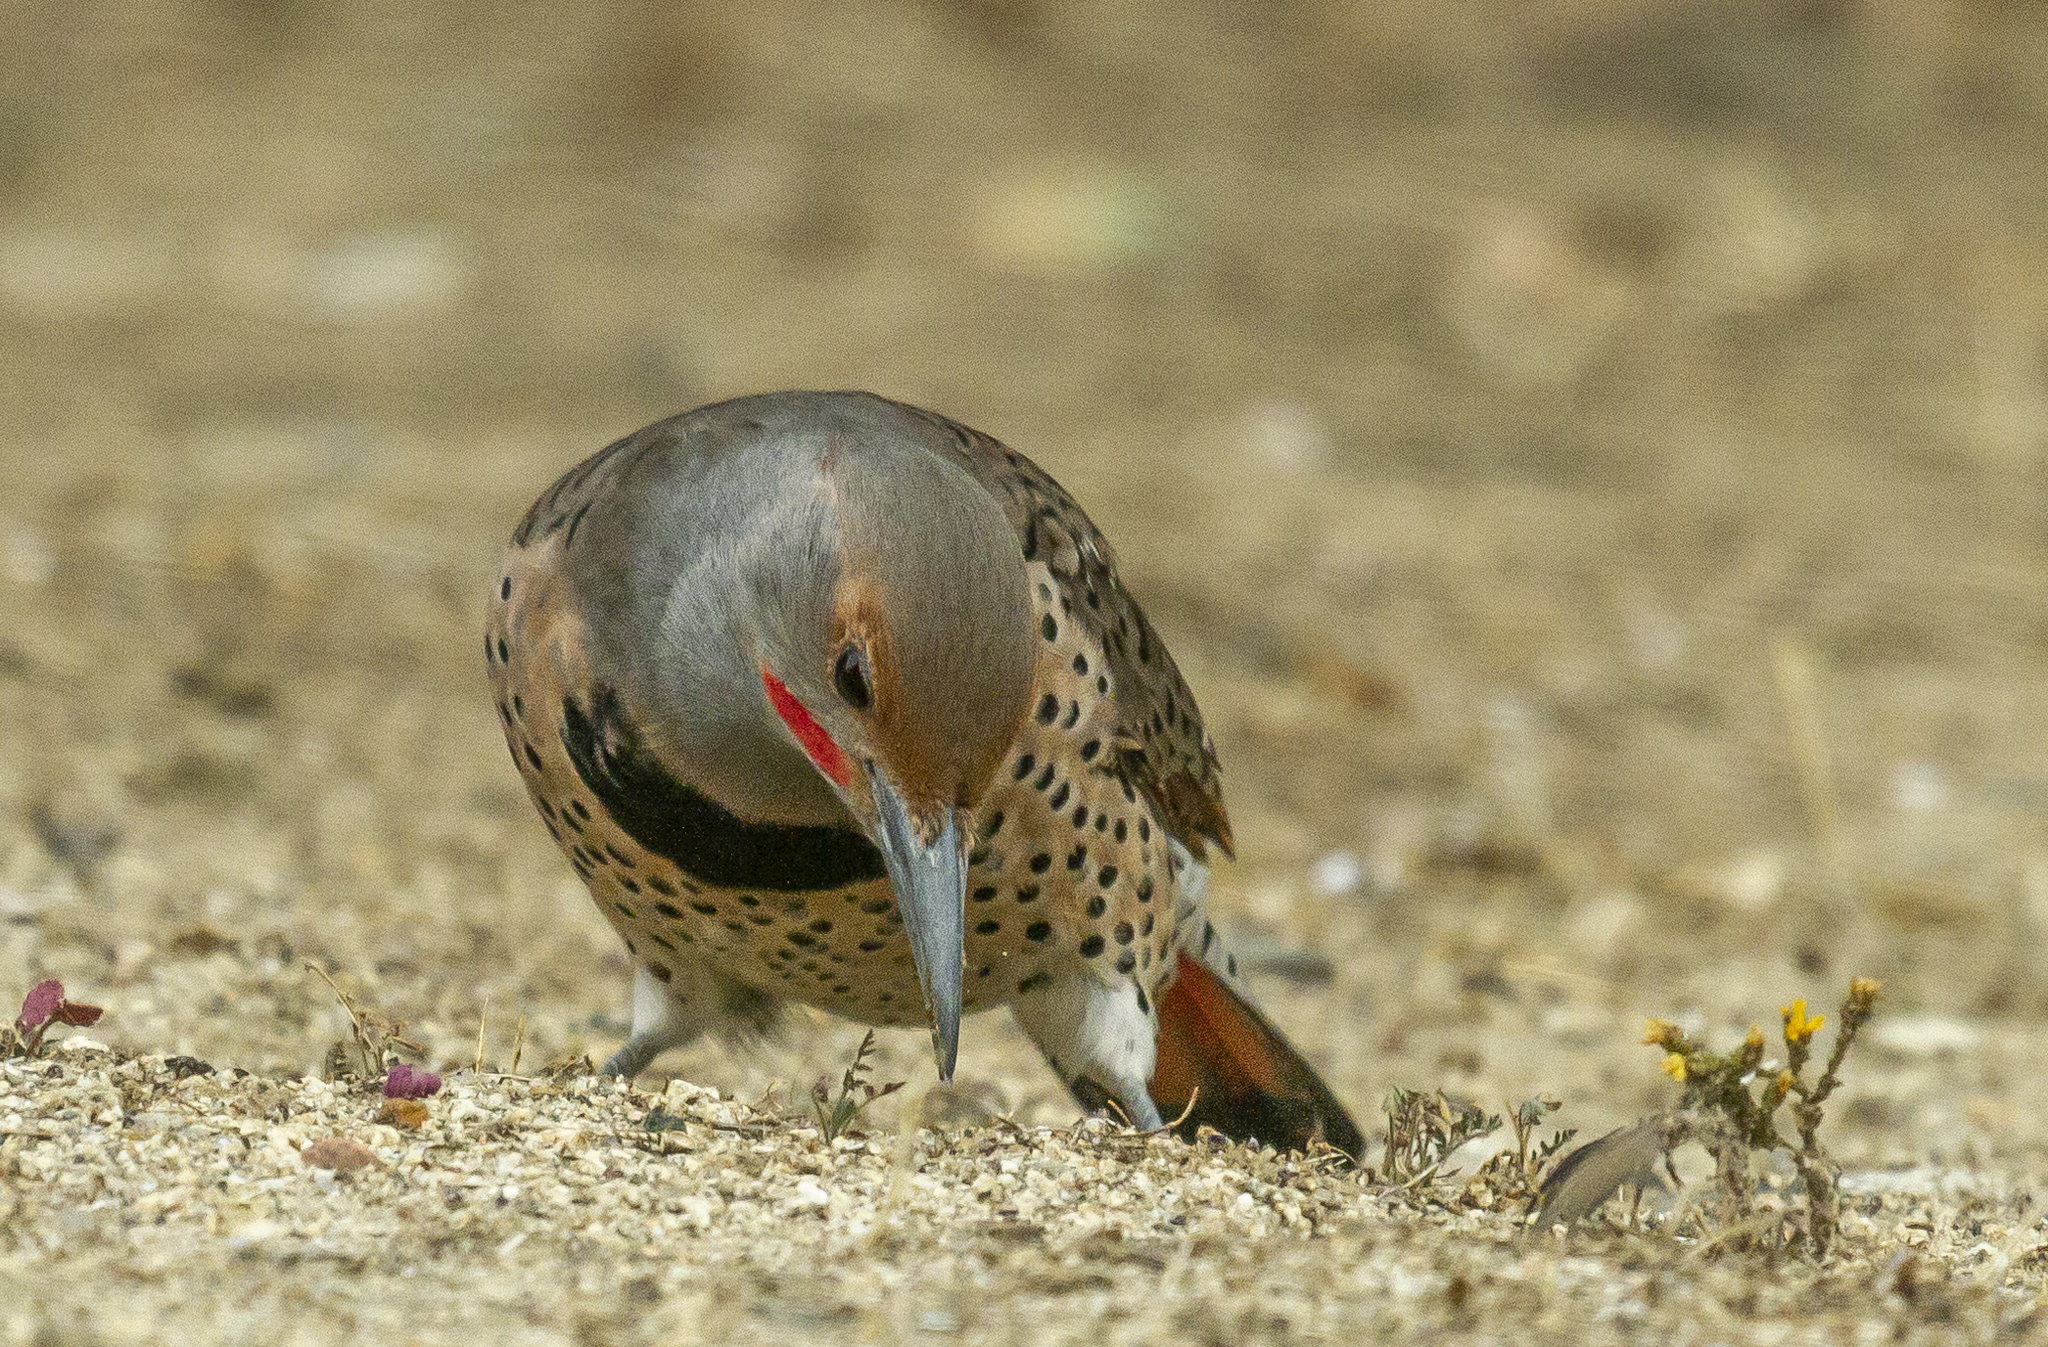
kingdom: Animalia
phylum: Chordata
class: Aves
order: Piciformes
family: Picidae
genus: Colaptes
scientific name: Colaptes auratus
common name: Northern flicker
